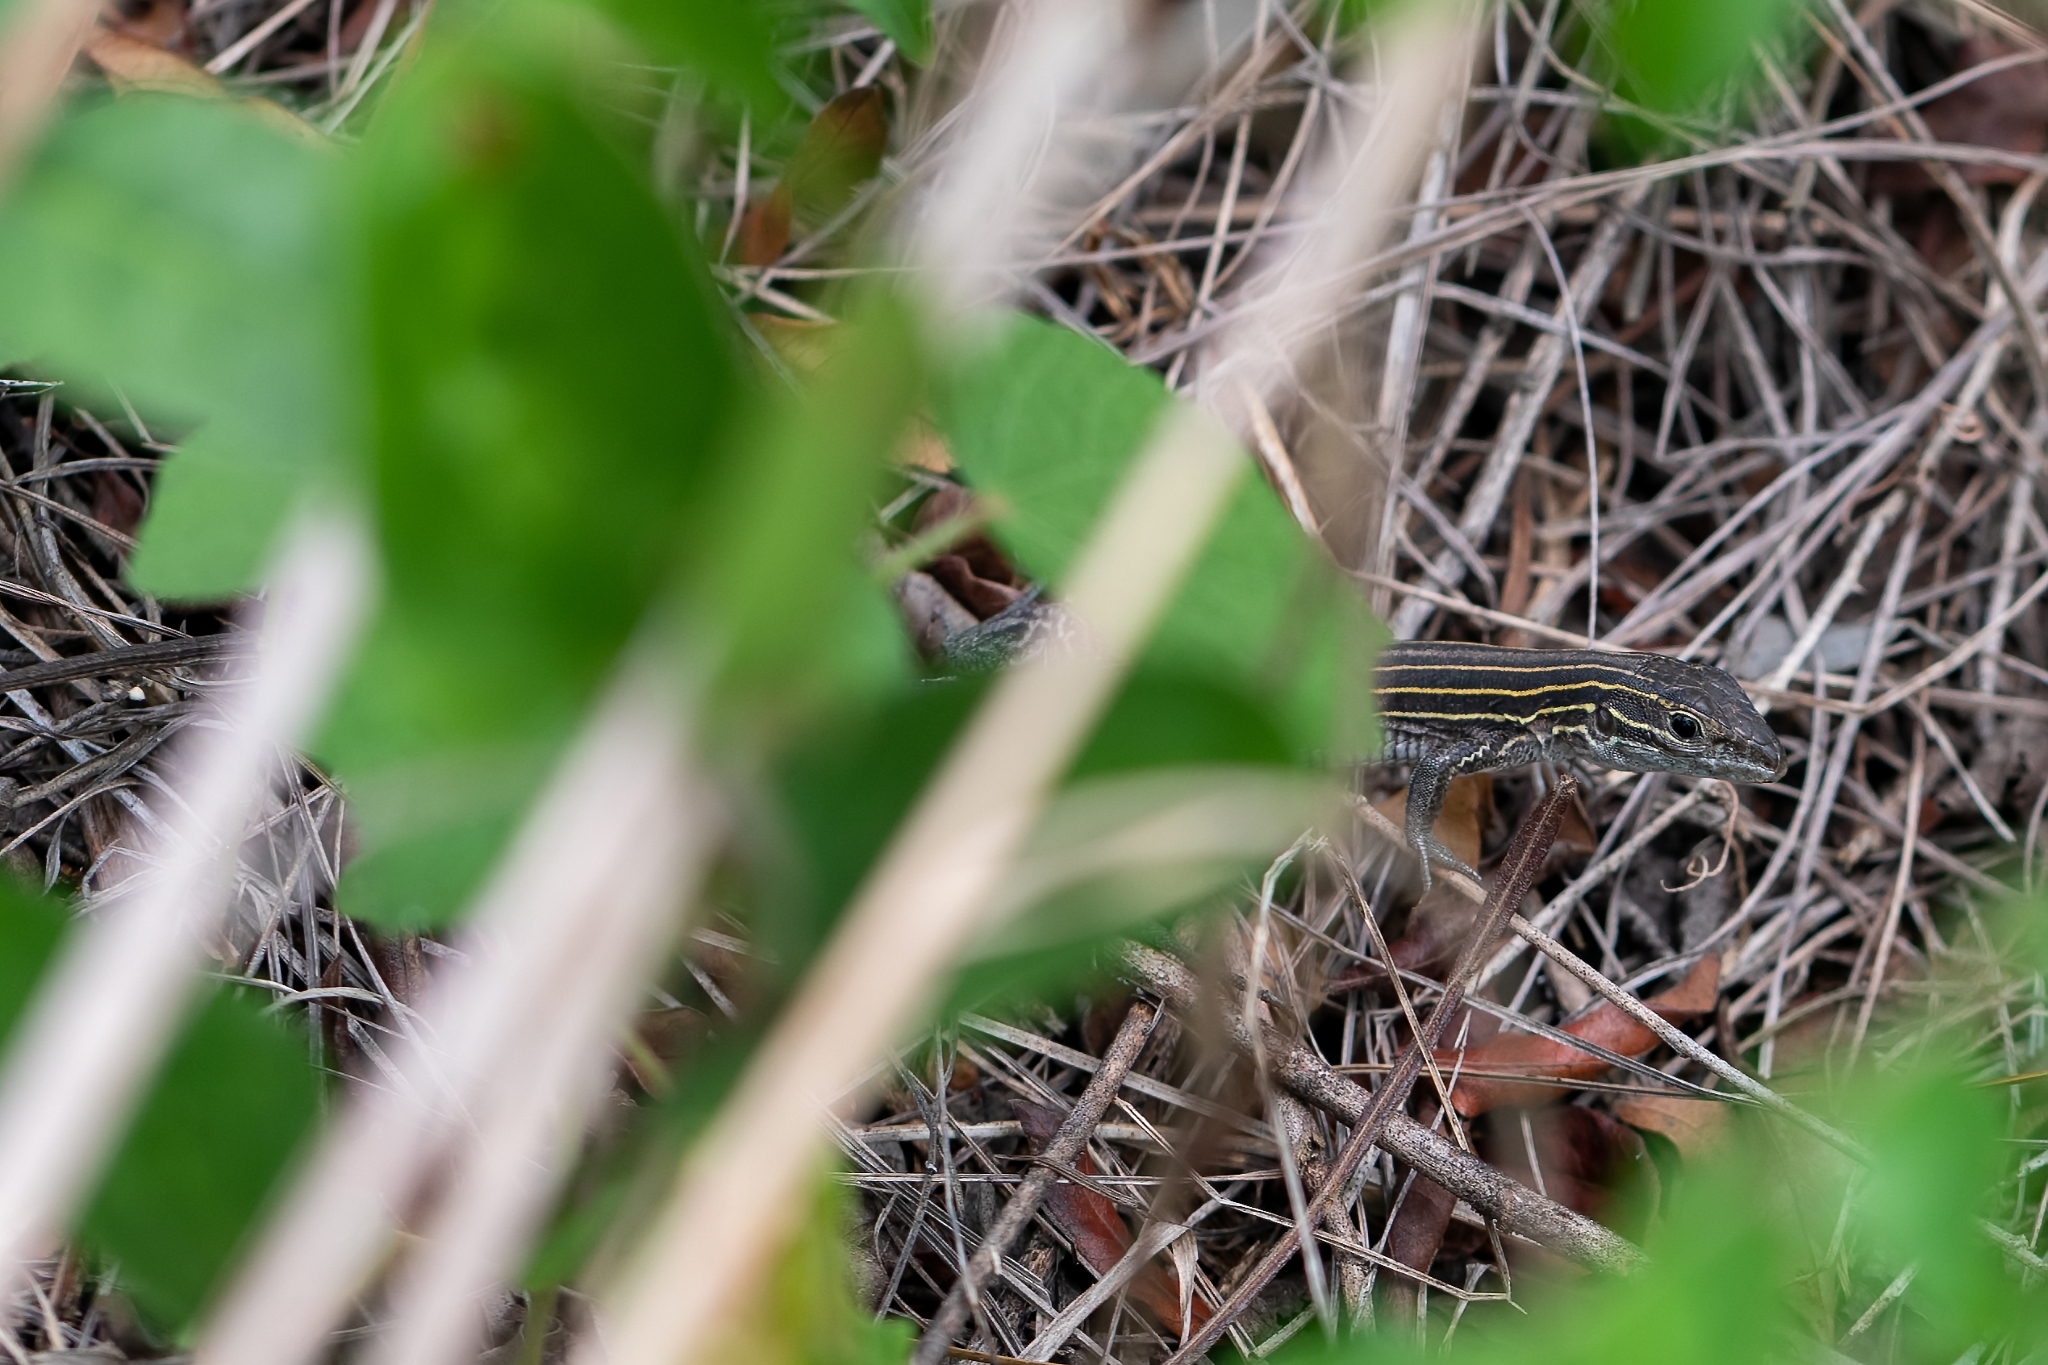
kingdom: Animalia
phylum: Chordata
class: Squamata
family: Teiidae
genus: Aspidoscelis
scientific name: Aspidoscelis sexlineatus
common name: Six-lined racerunner
